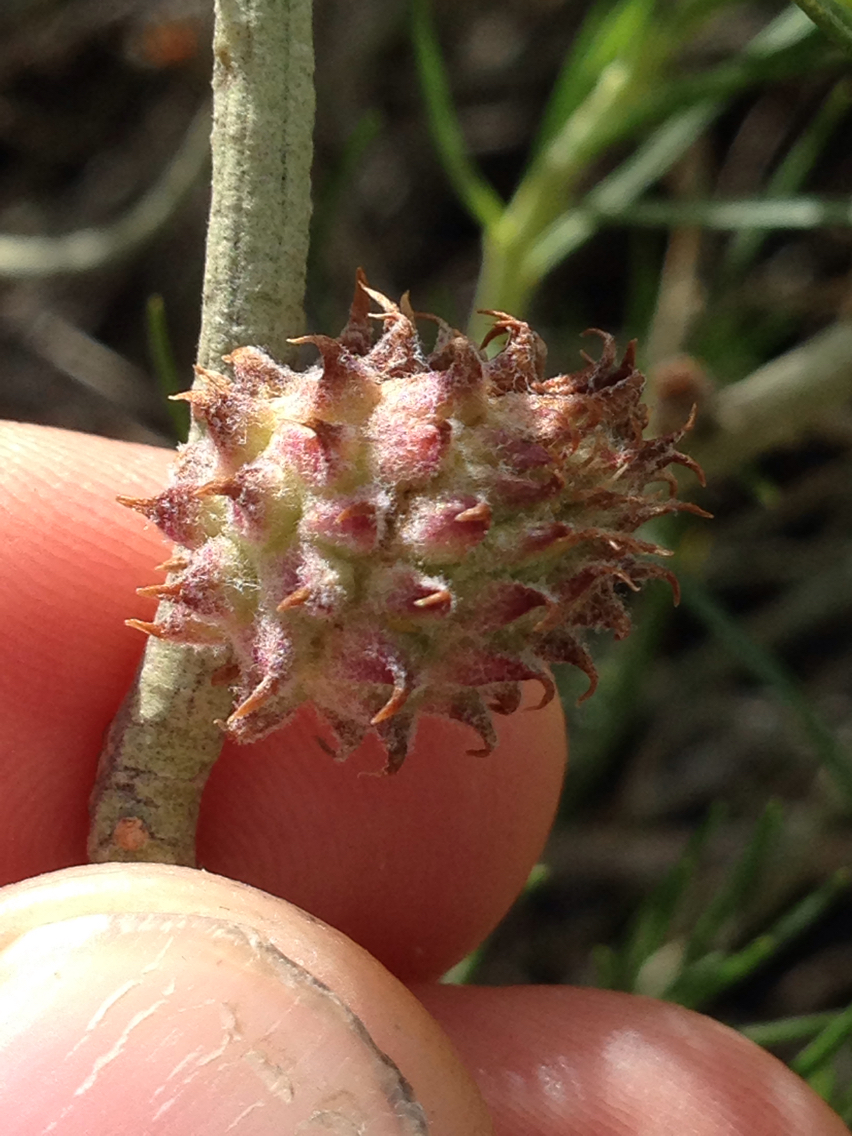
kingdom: Animalia
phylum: Arthropoda
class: Insecta
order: Diptera
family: Cecidomyiidae
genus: Rhopalomyia
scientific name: Rhopalomyia utahensis
